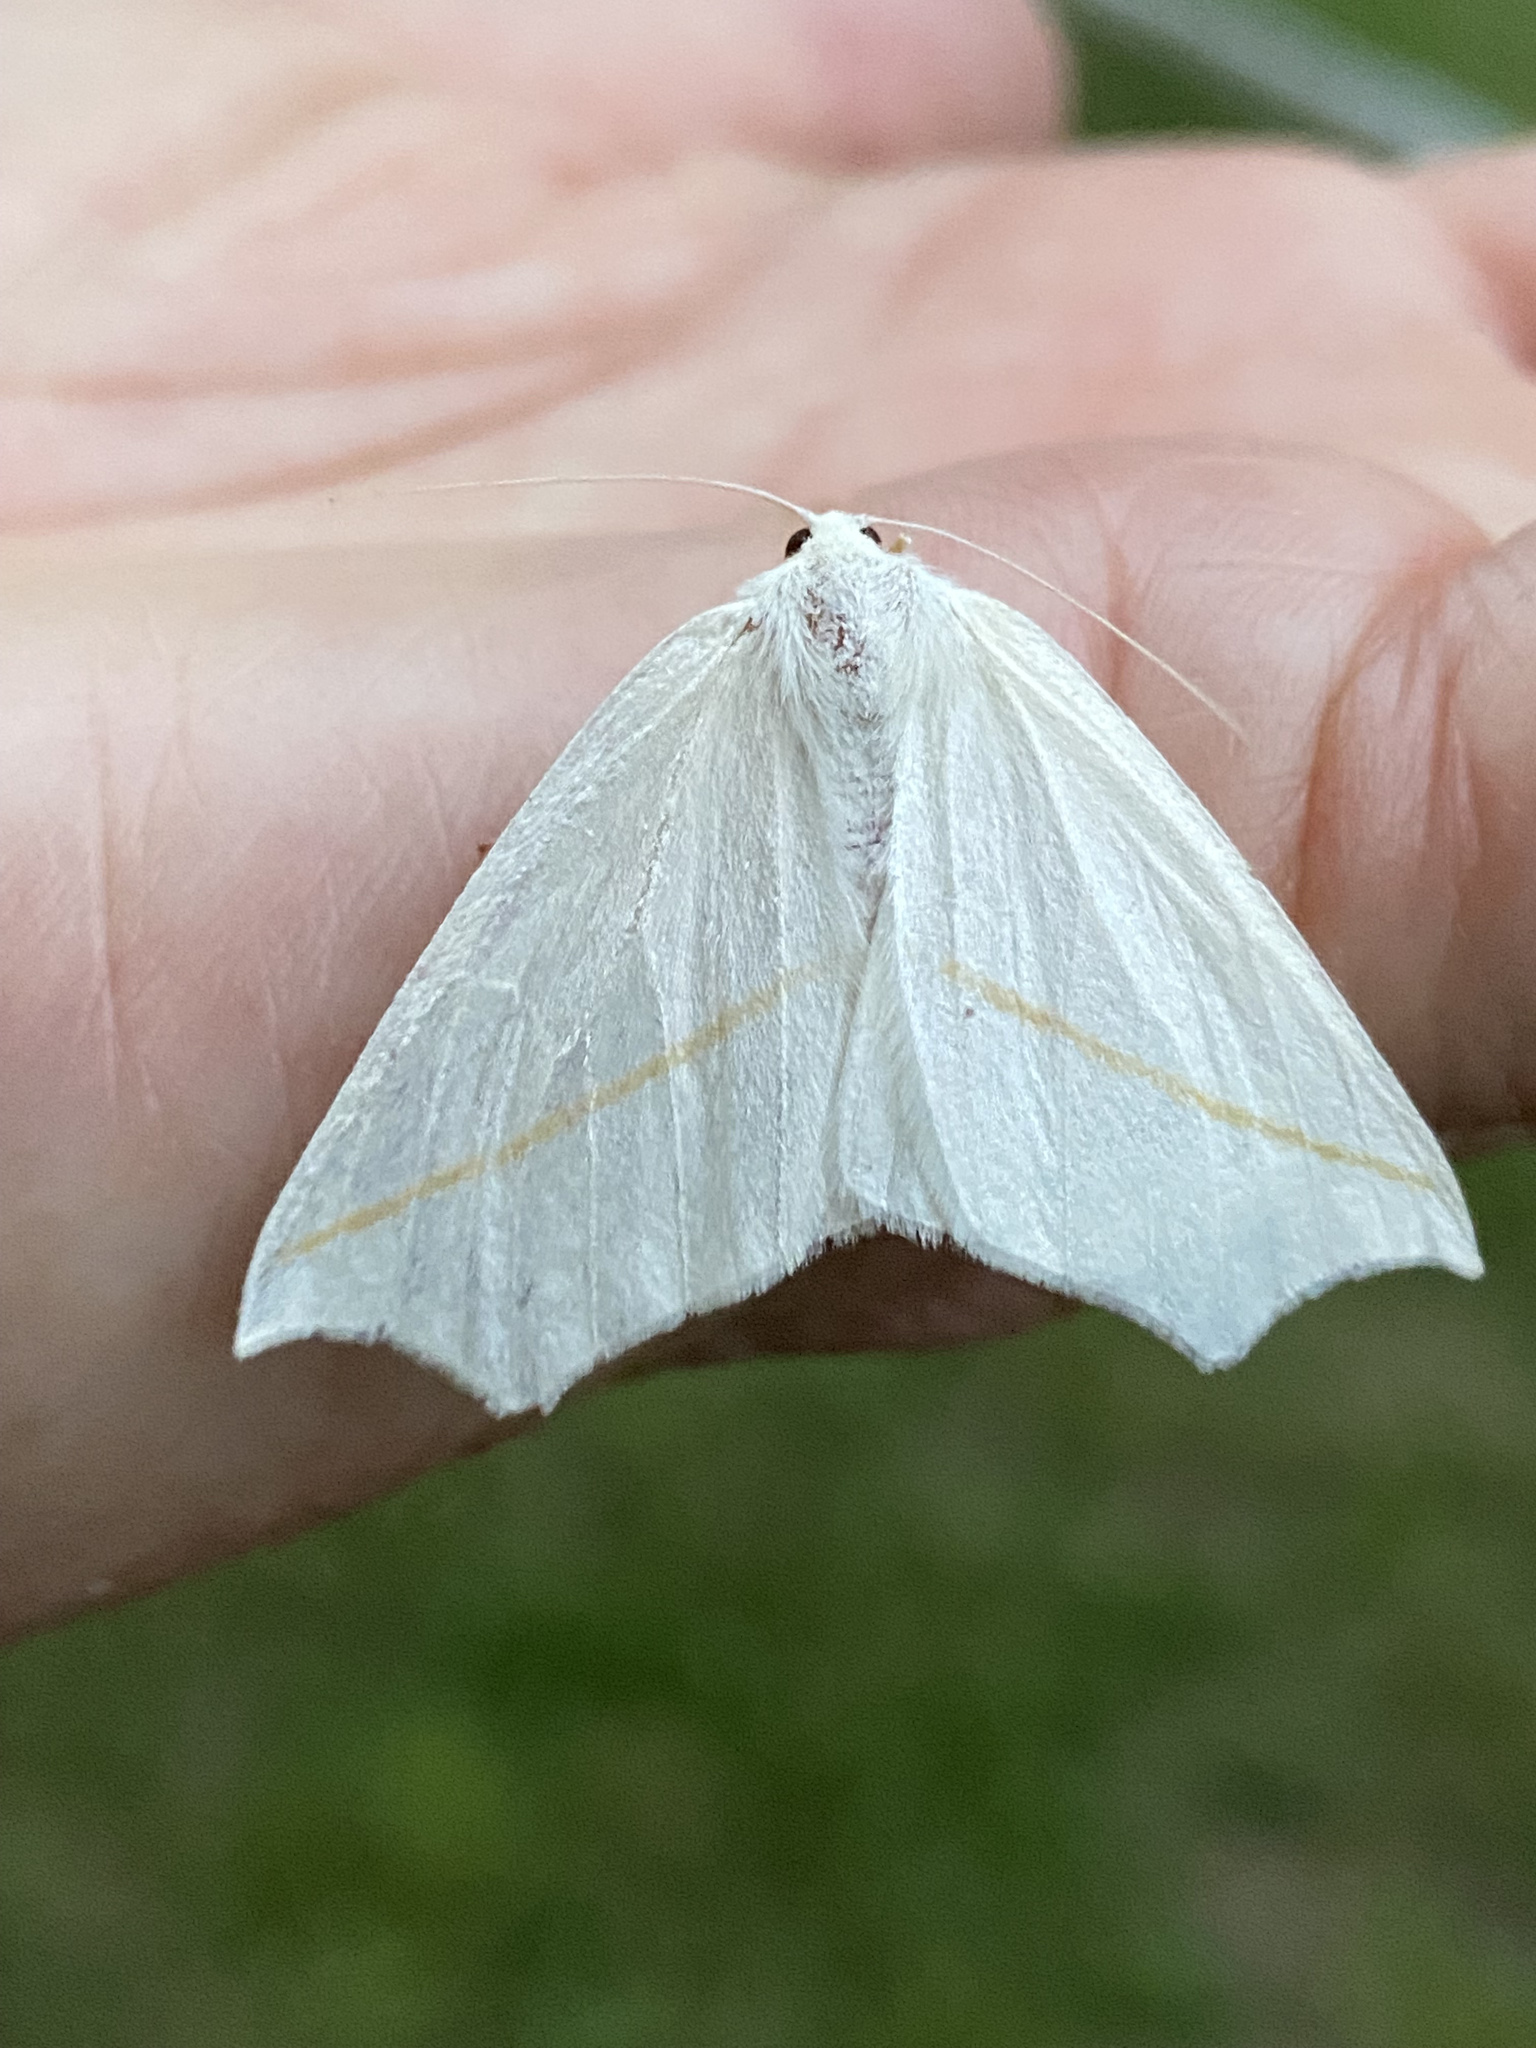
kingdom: Animalia
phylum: Arthropoda
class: Insecta
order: Lepidoptera
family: Geometridae
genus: Tetracis
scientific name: Tetracis cachexiata
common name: White slant-line
